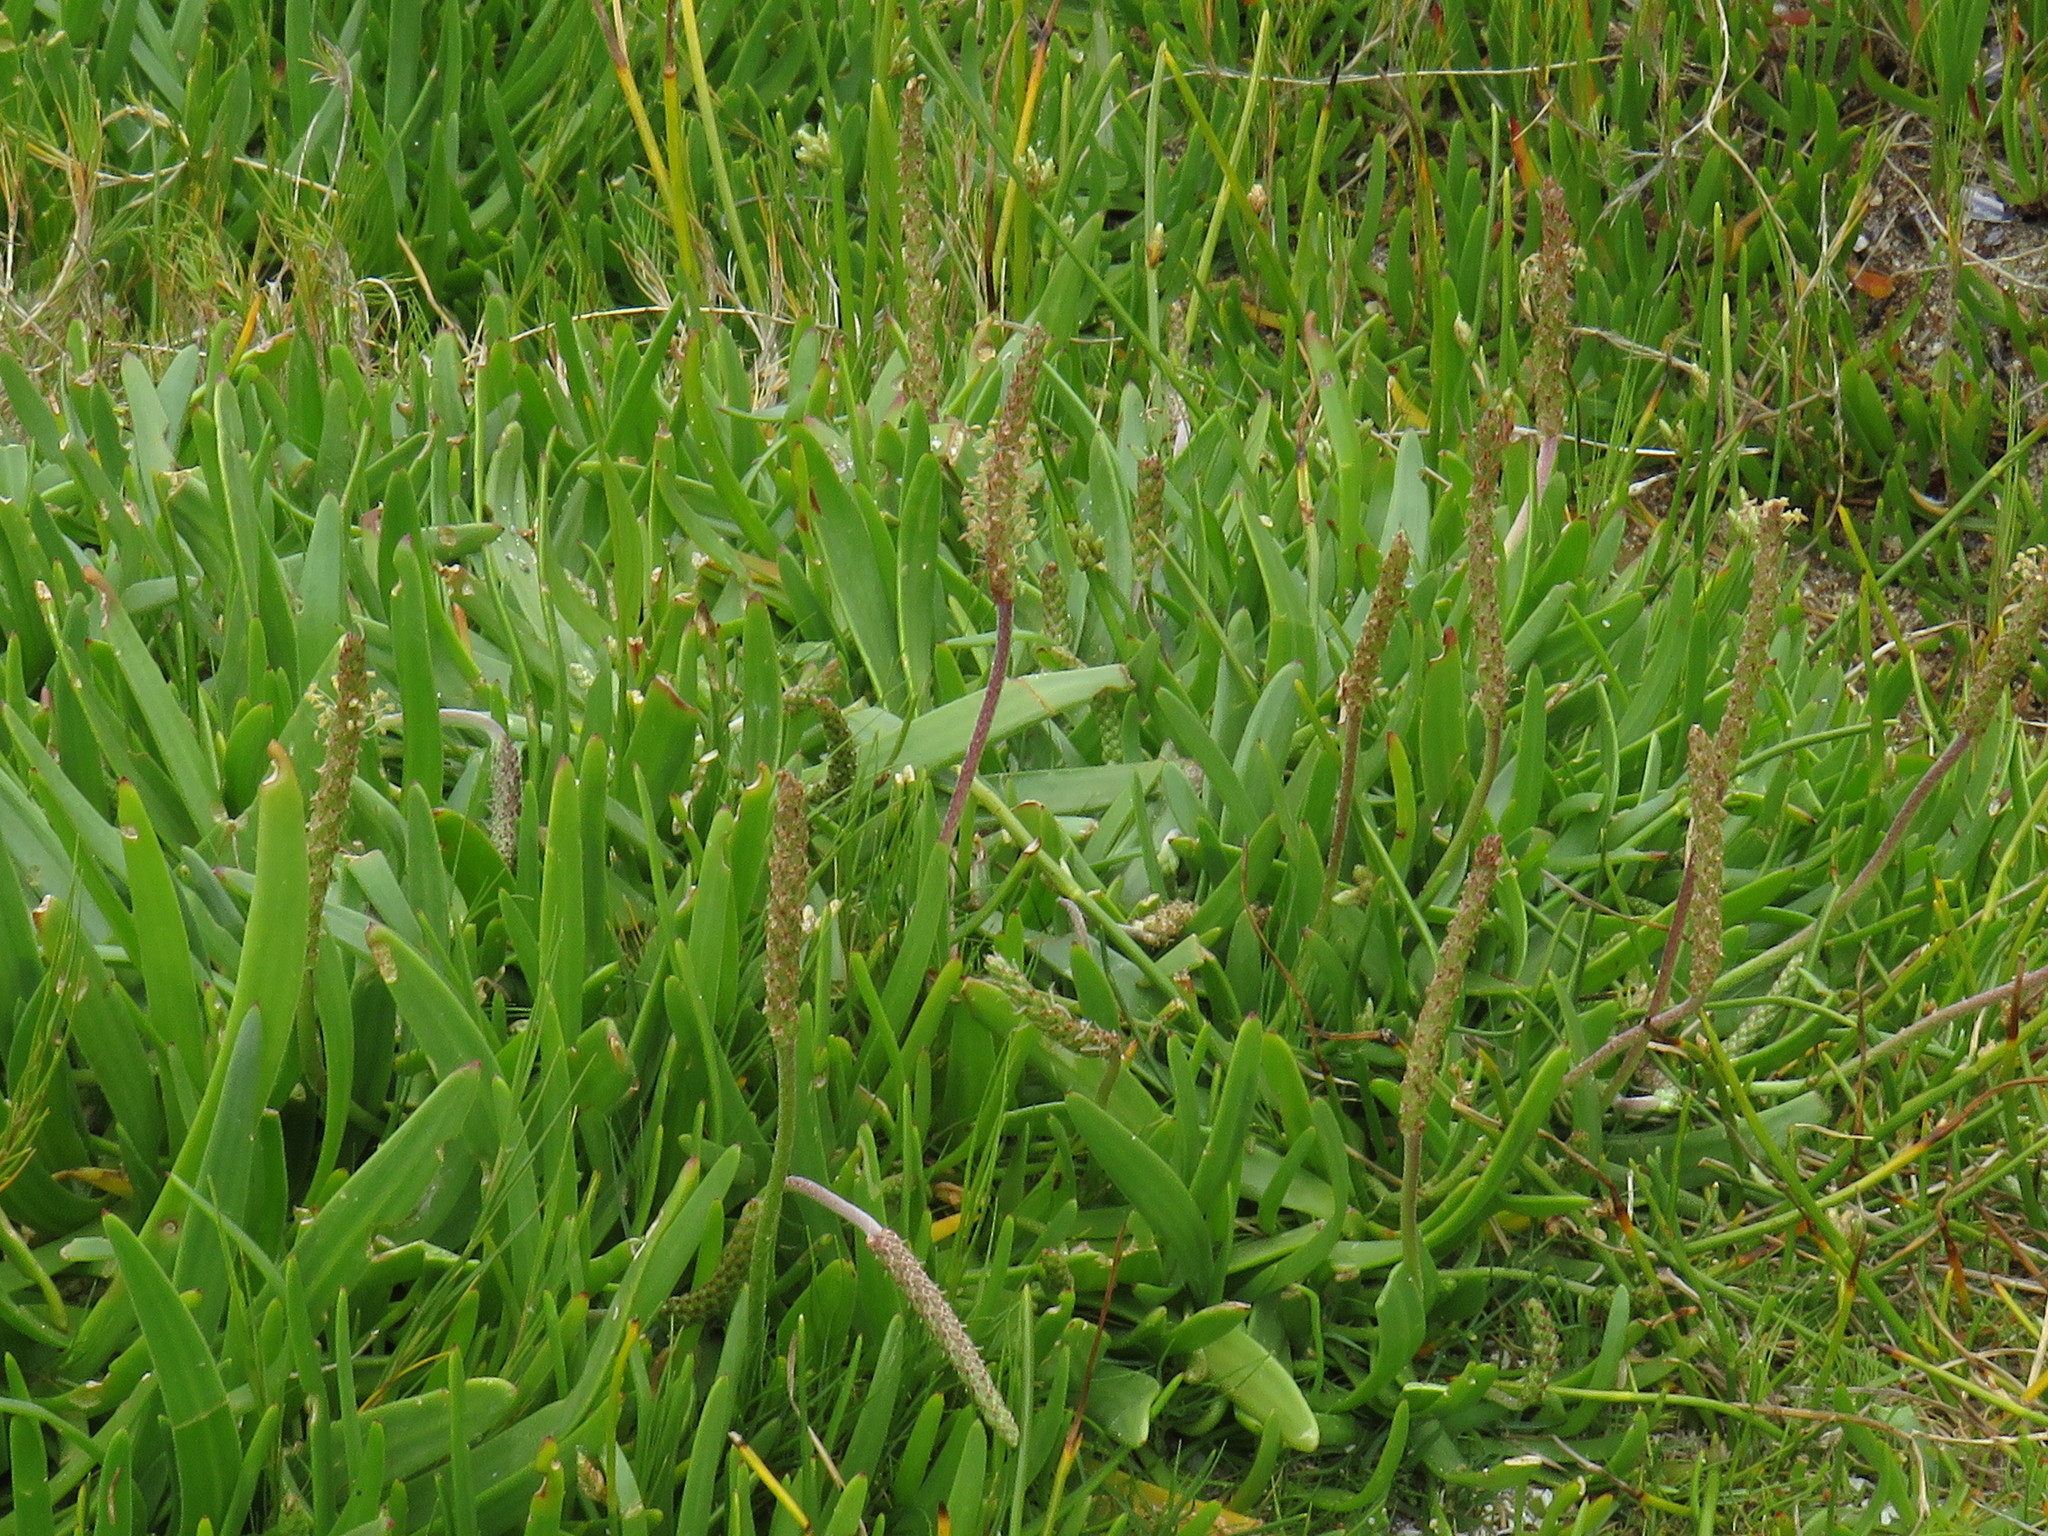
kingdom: Plantae
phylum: Tracheophyta
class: Magnoliopsida
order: Lamiales
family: Plantaginaceae
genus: Plantago
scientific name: Plantago carnosa
